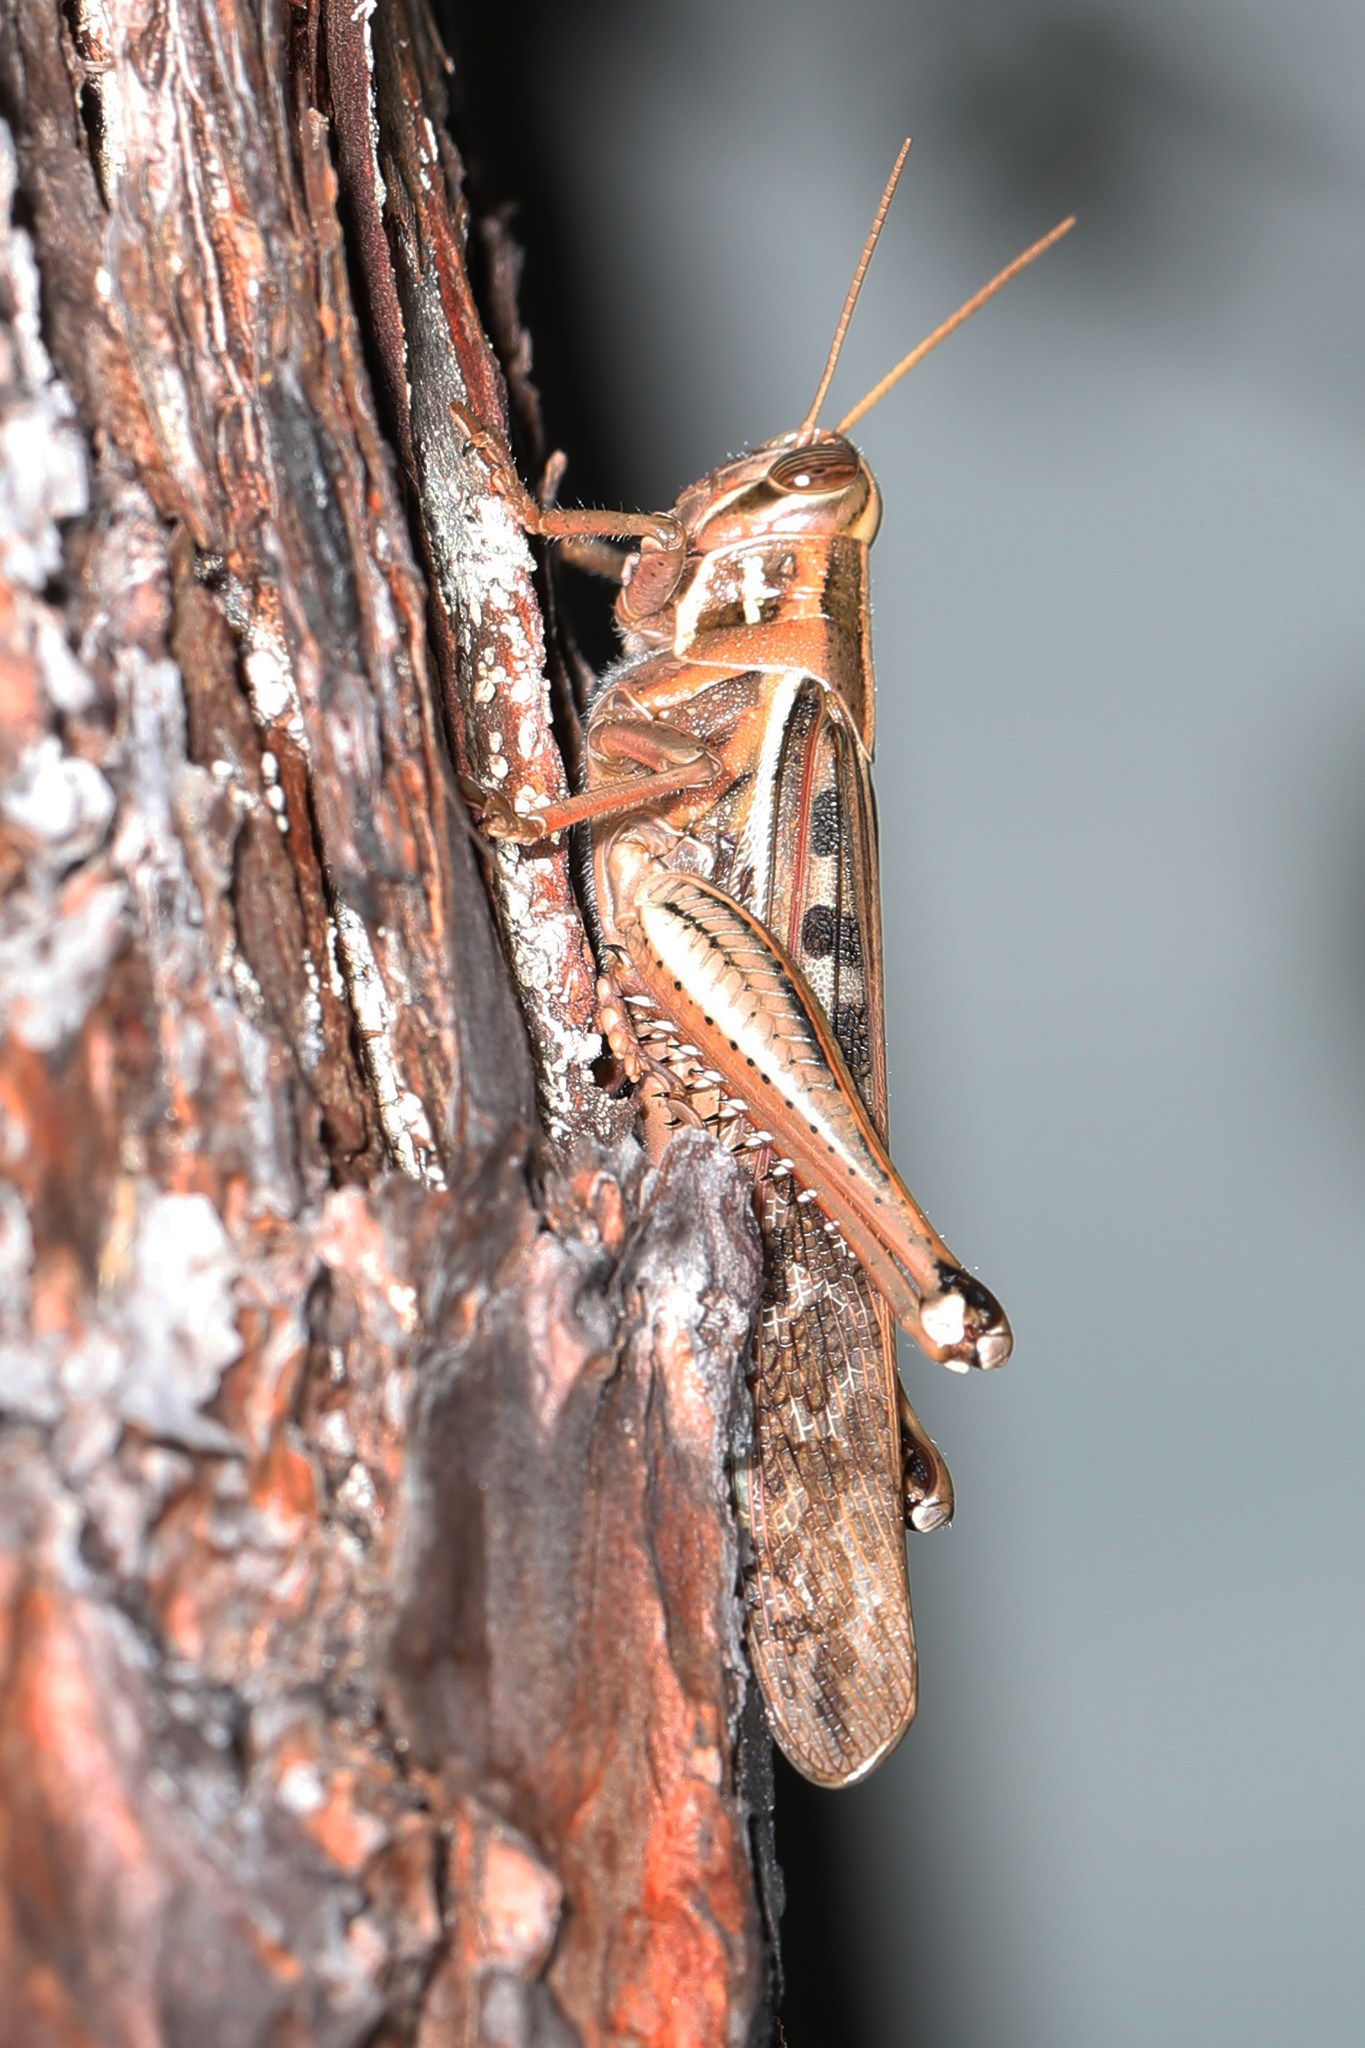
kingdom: Animalia
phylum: Arthropoda
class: Insecta
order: Orthoptera
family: Acrididae
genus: Schistocerca
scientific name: Schistocerca americana
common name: American bird locust
